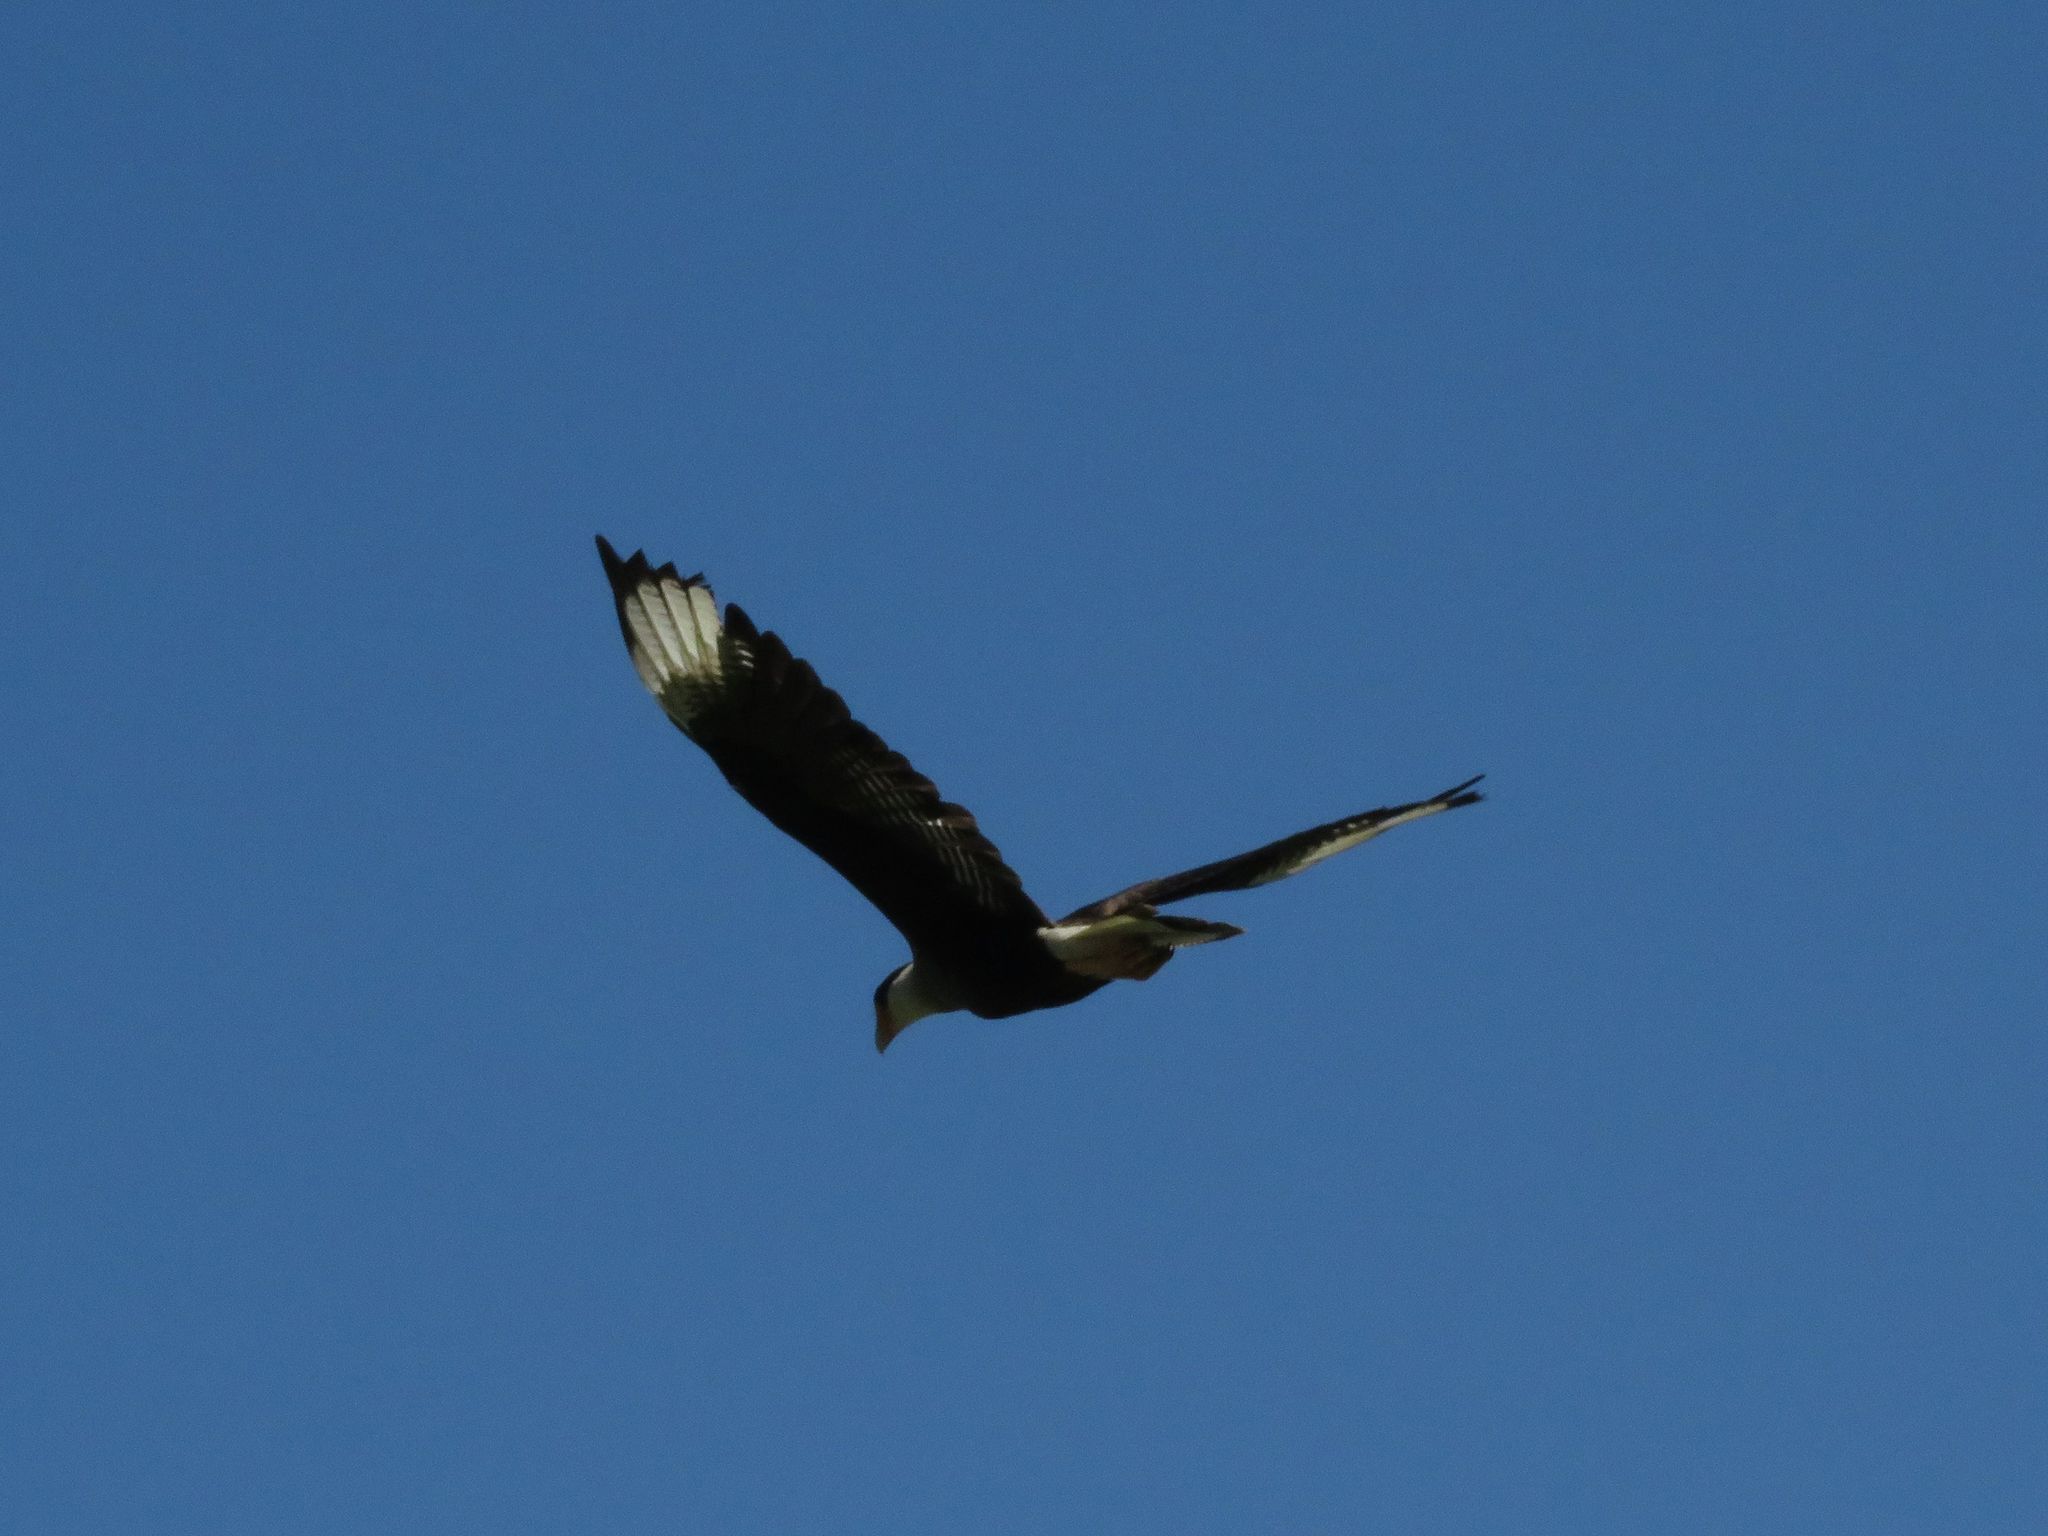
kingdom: Animalia
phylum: Chordata
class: Aves
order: Falconiformes
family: Falconidae
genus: Caracara
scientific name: Caracara plancus
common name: Southern caracara
